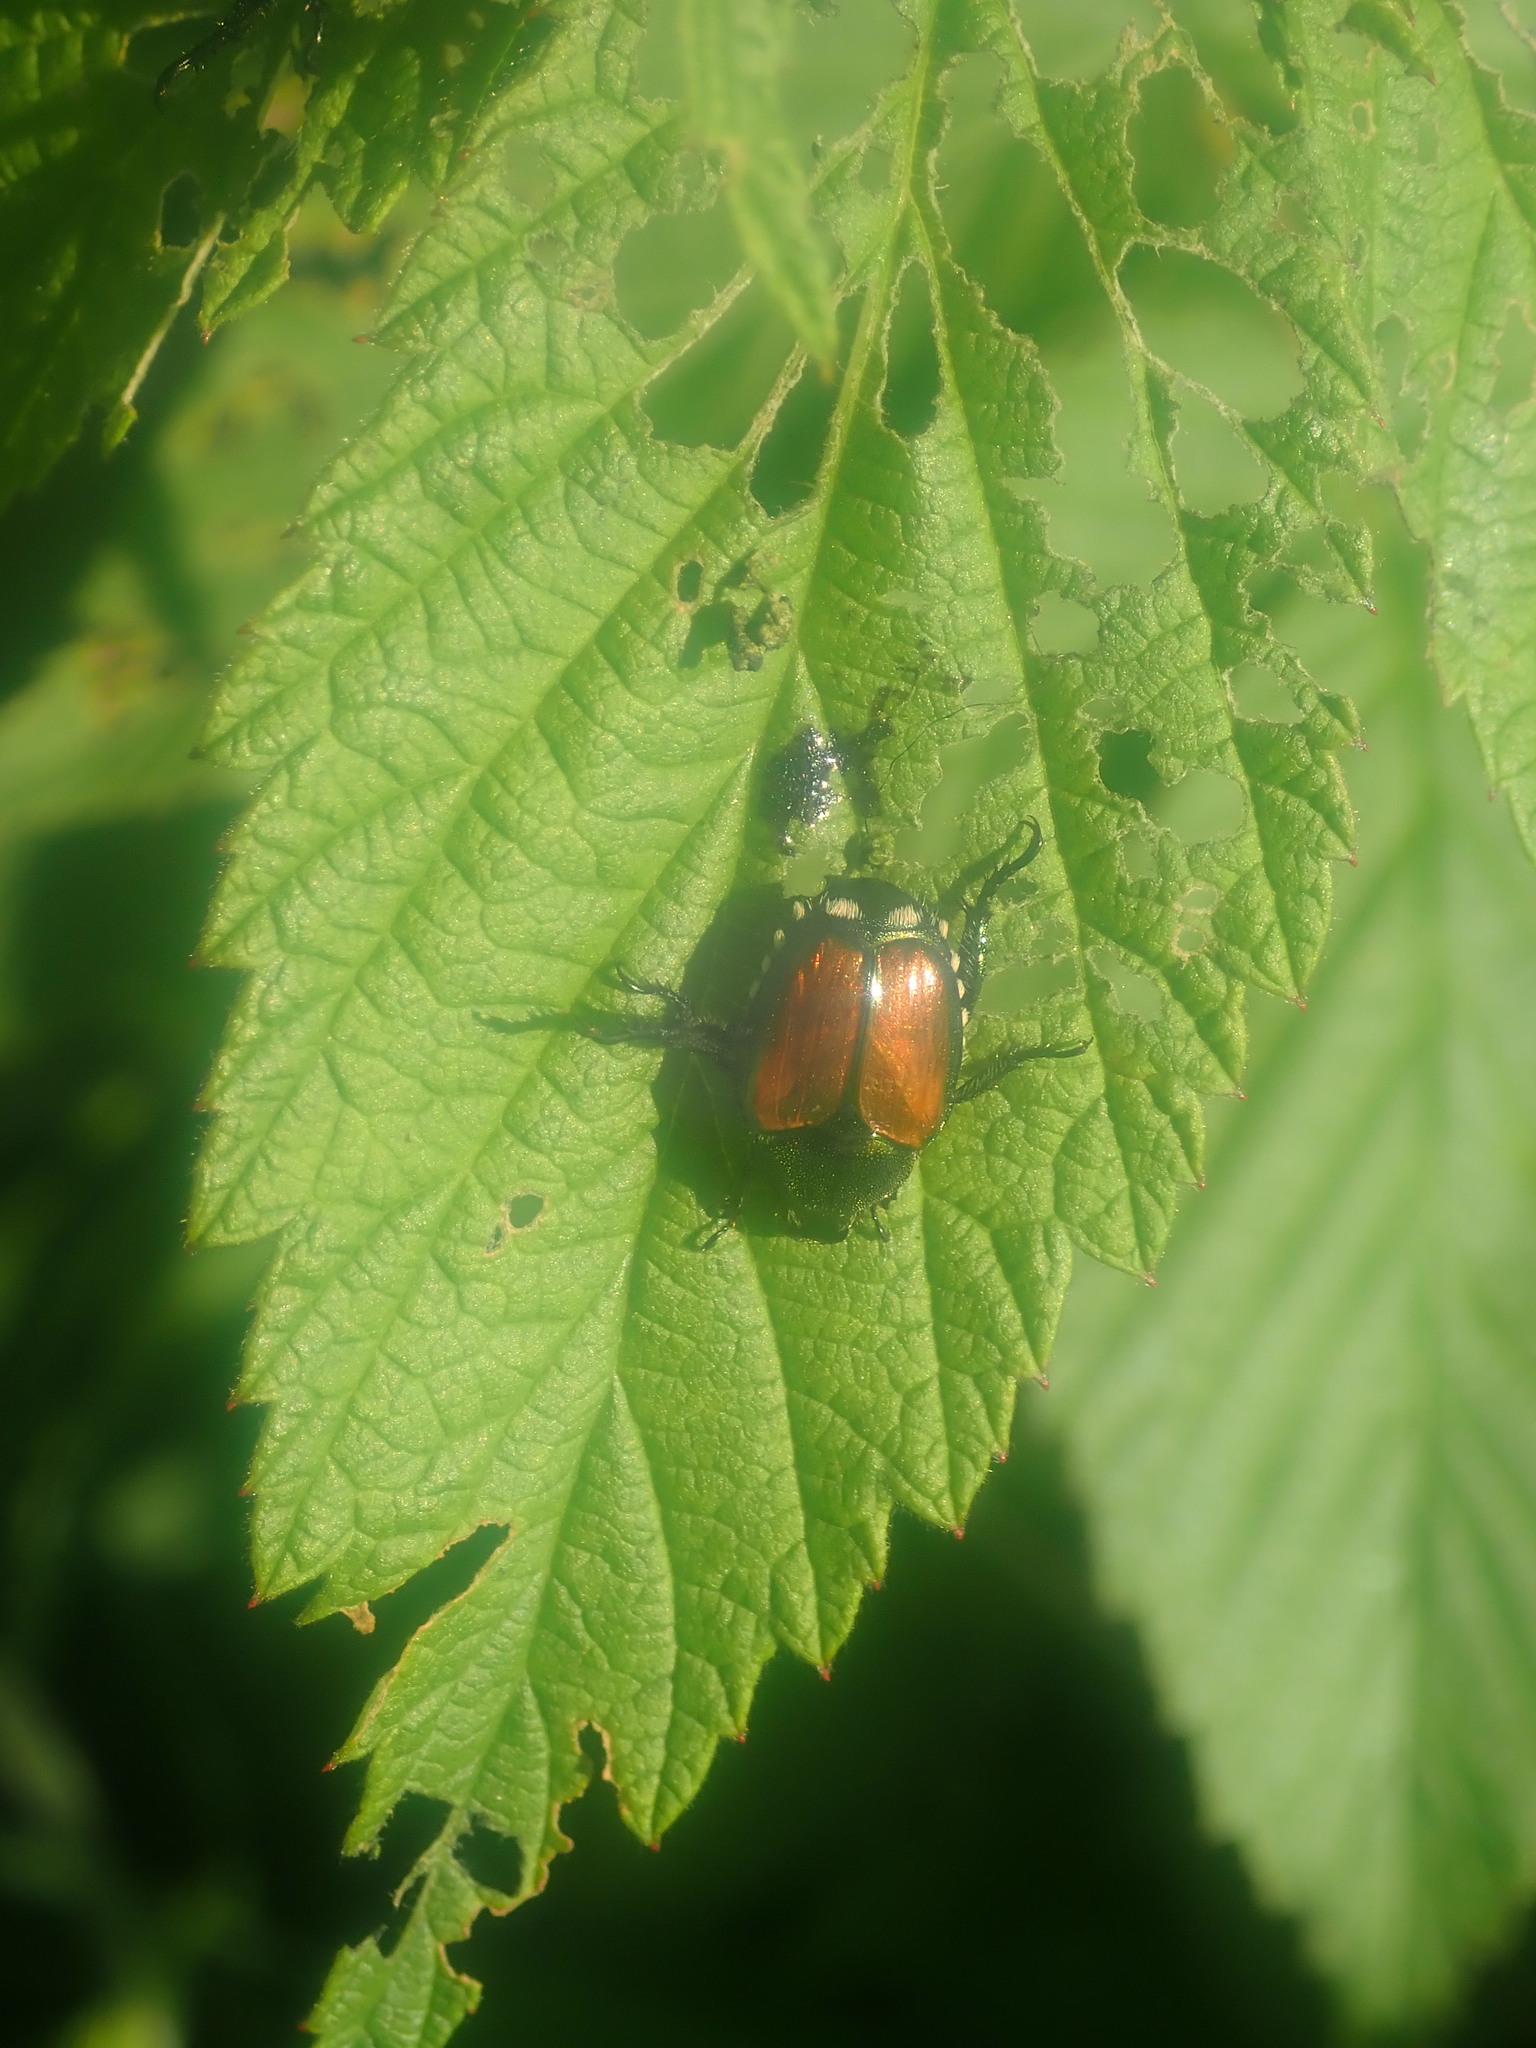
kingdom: Animalia
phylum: Arthropoda
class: Insecta
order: Coleoptera
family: Scarabaeidae
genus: Popillia
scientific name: Popillia japonica
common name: Japanese beetle
